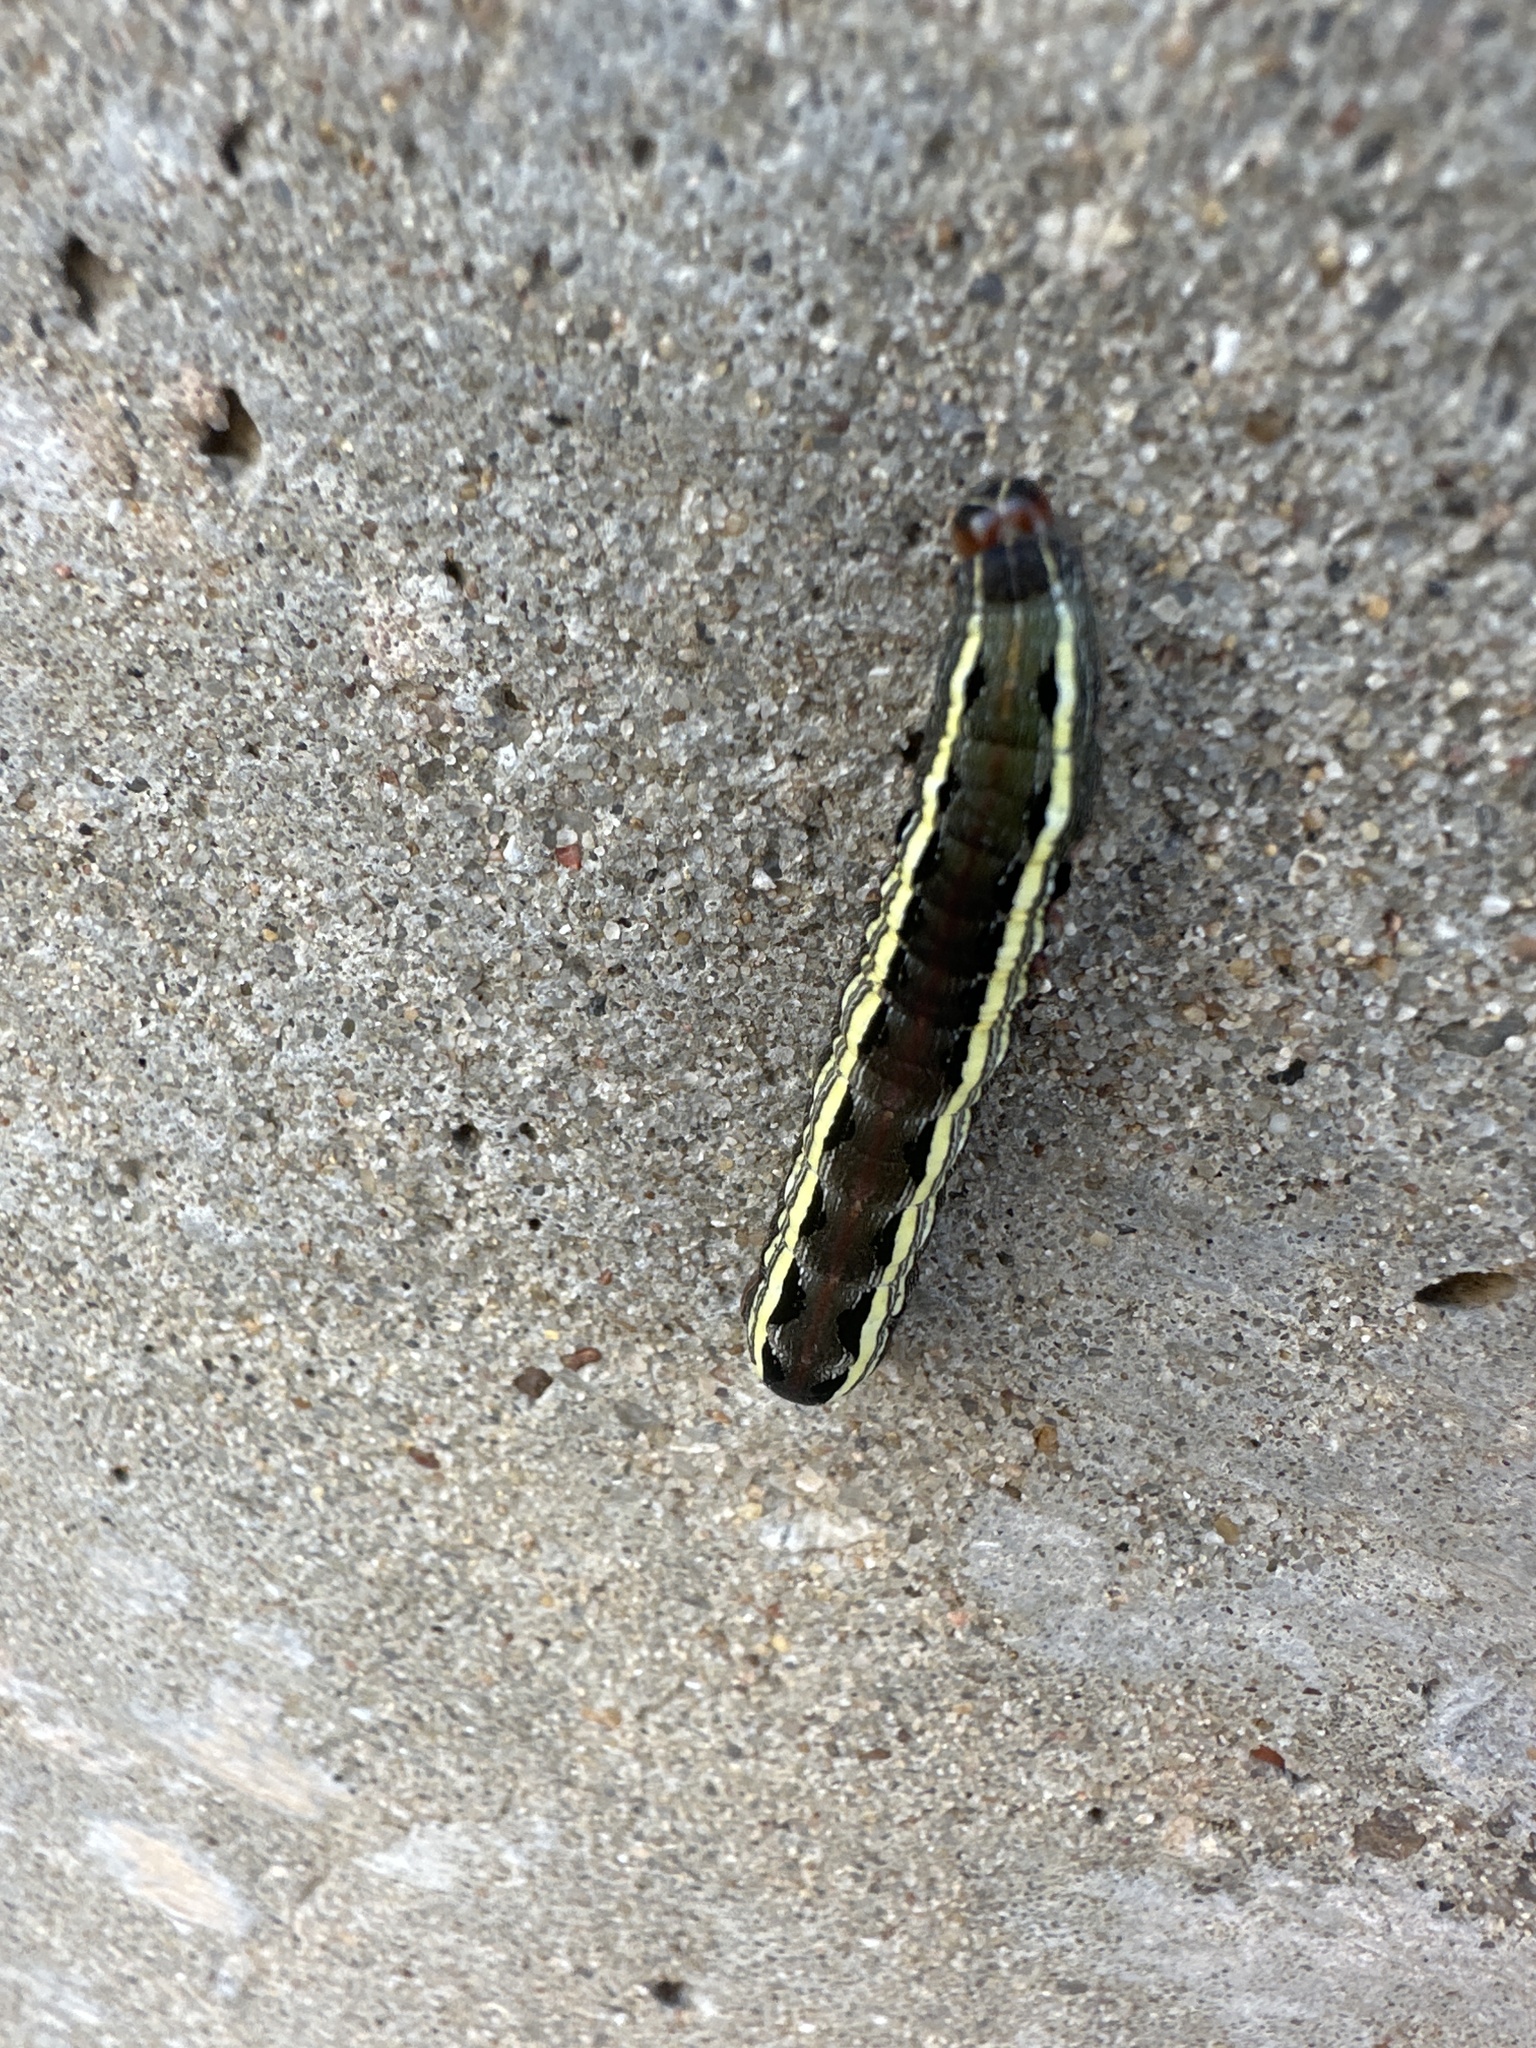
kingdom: Animalia
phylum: Arthropoda
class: Insecta
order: Lepidoptera
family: Noctuidae
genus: Spodoptera
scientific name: Spodoptera ornithogalli
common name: Yellow-striped armyworm
